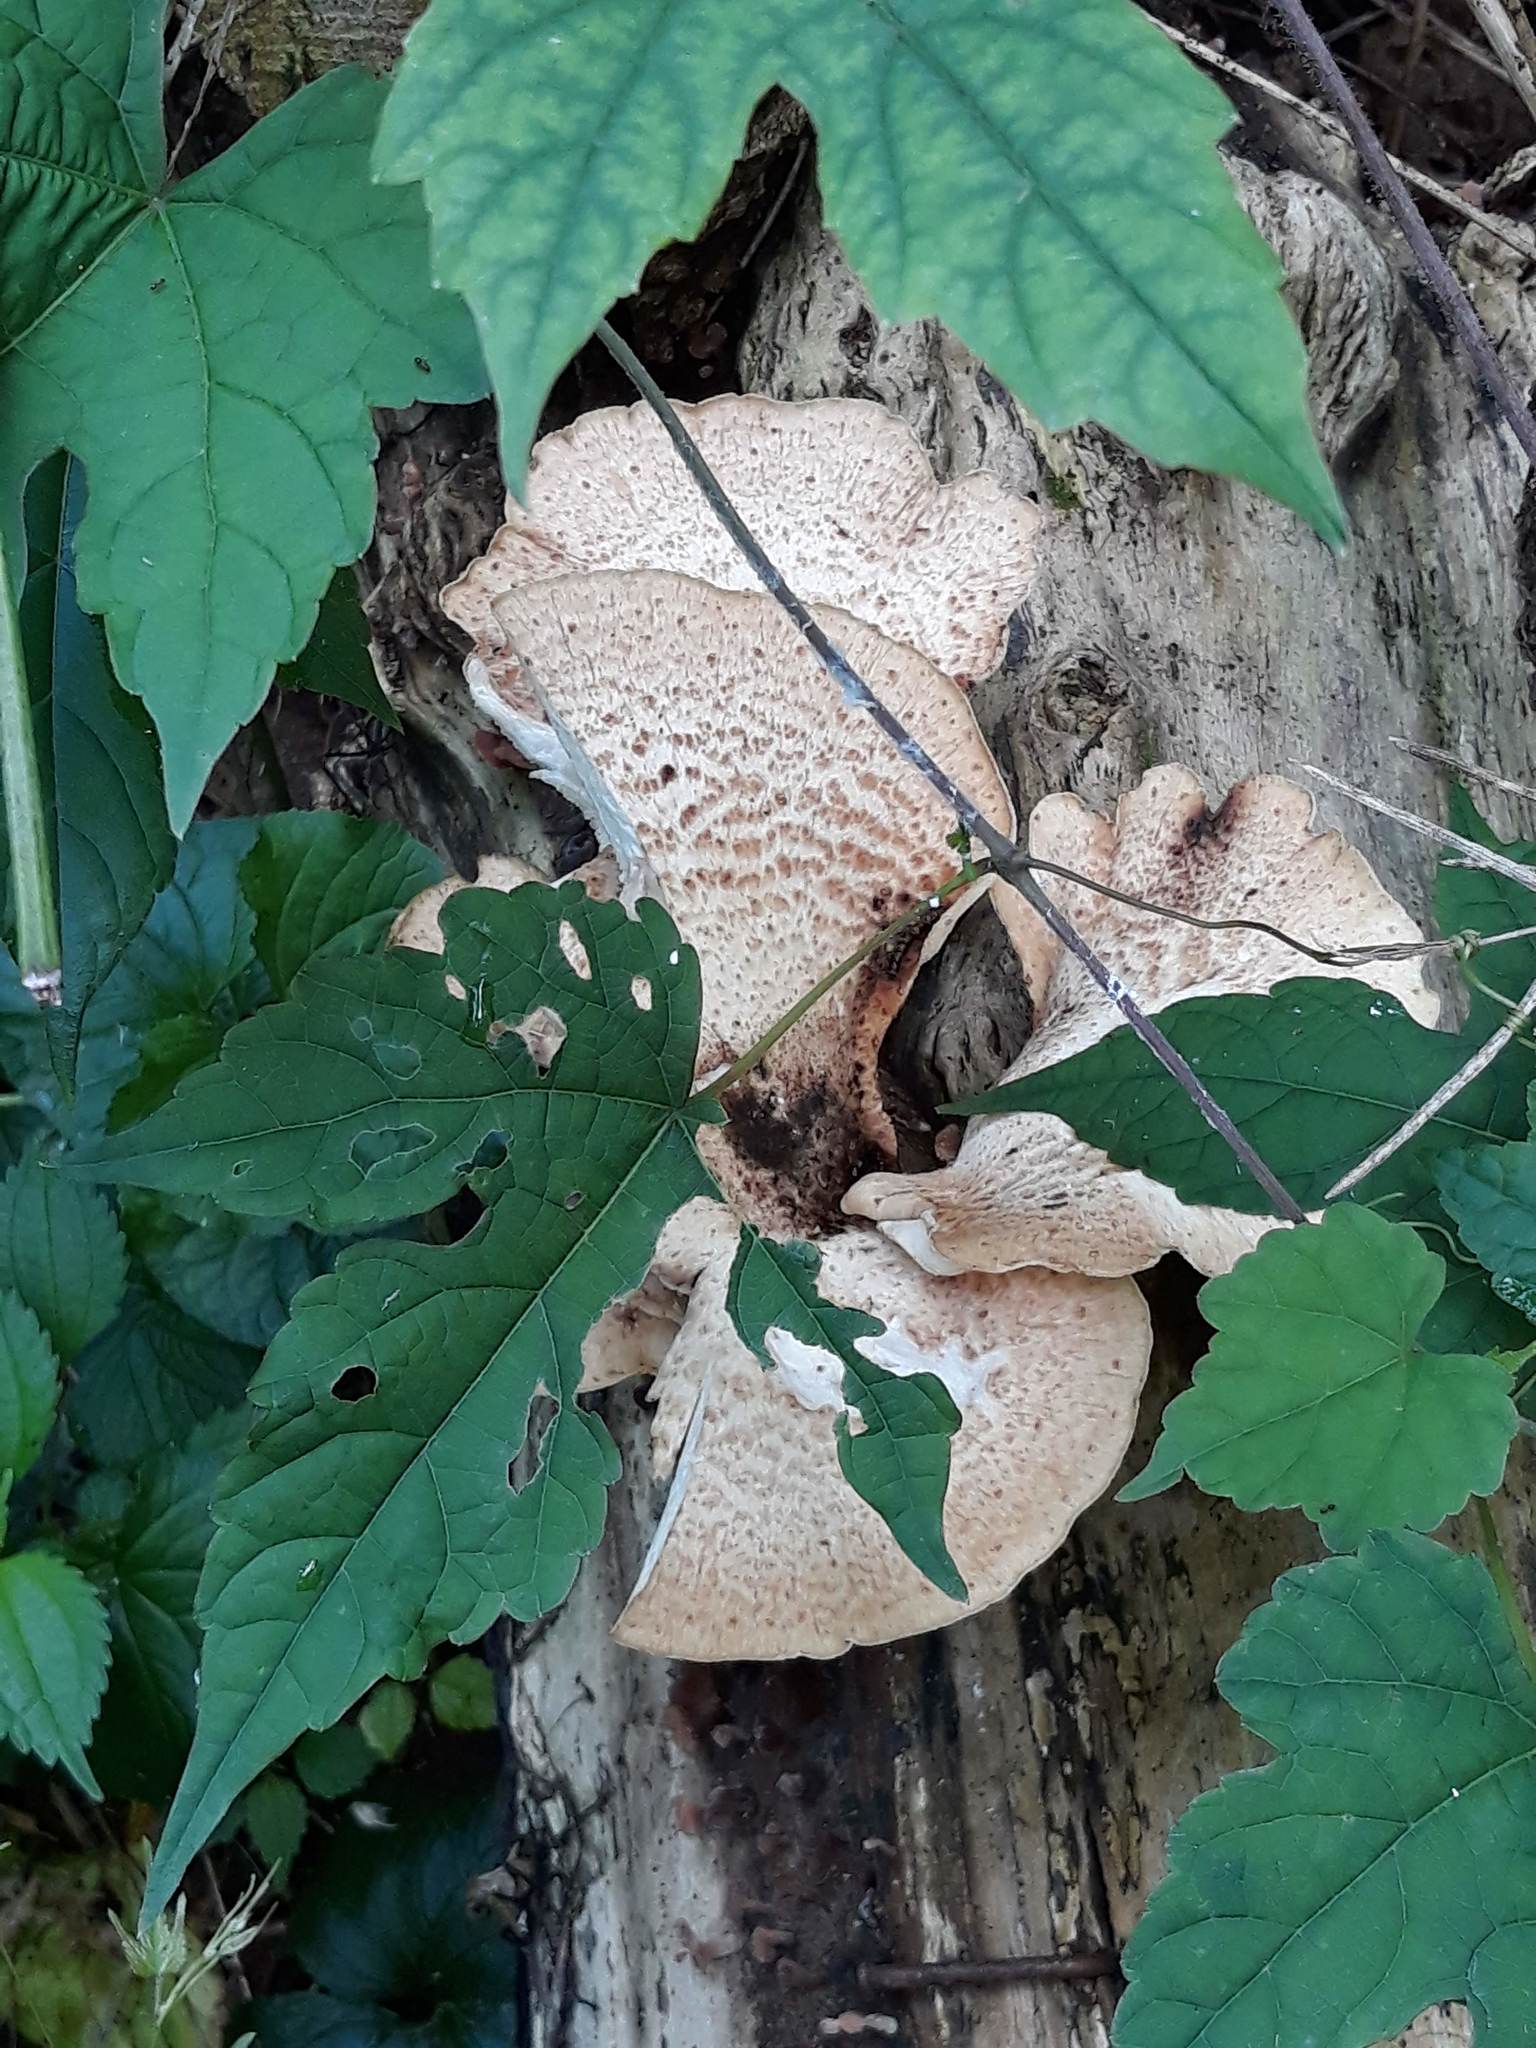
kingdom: Fungi
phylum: Basidiomycota
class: Agaricomycetes
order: Polyporales
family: Polyporaceae
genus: Cerioporus
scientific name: Cerioporus squamosus
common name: Dryad's saddle
